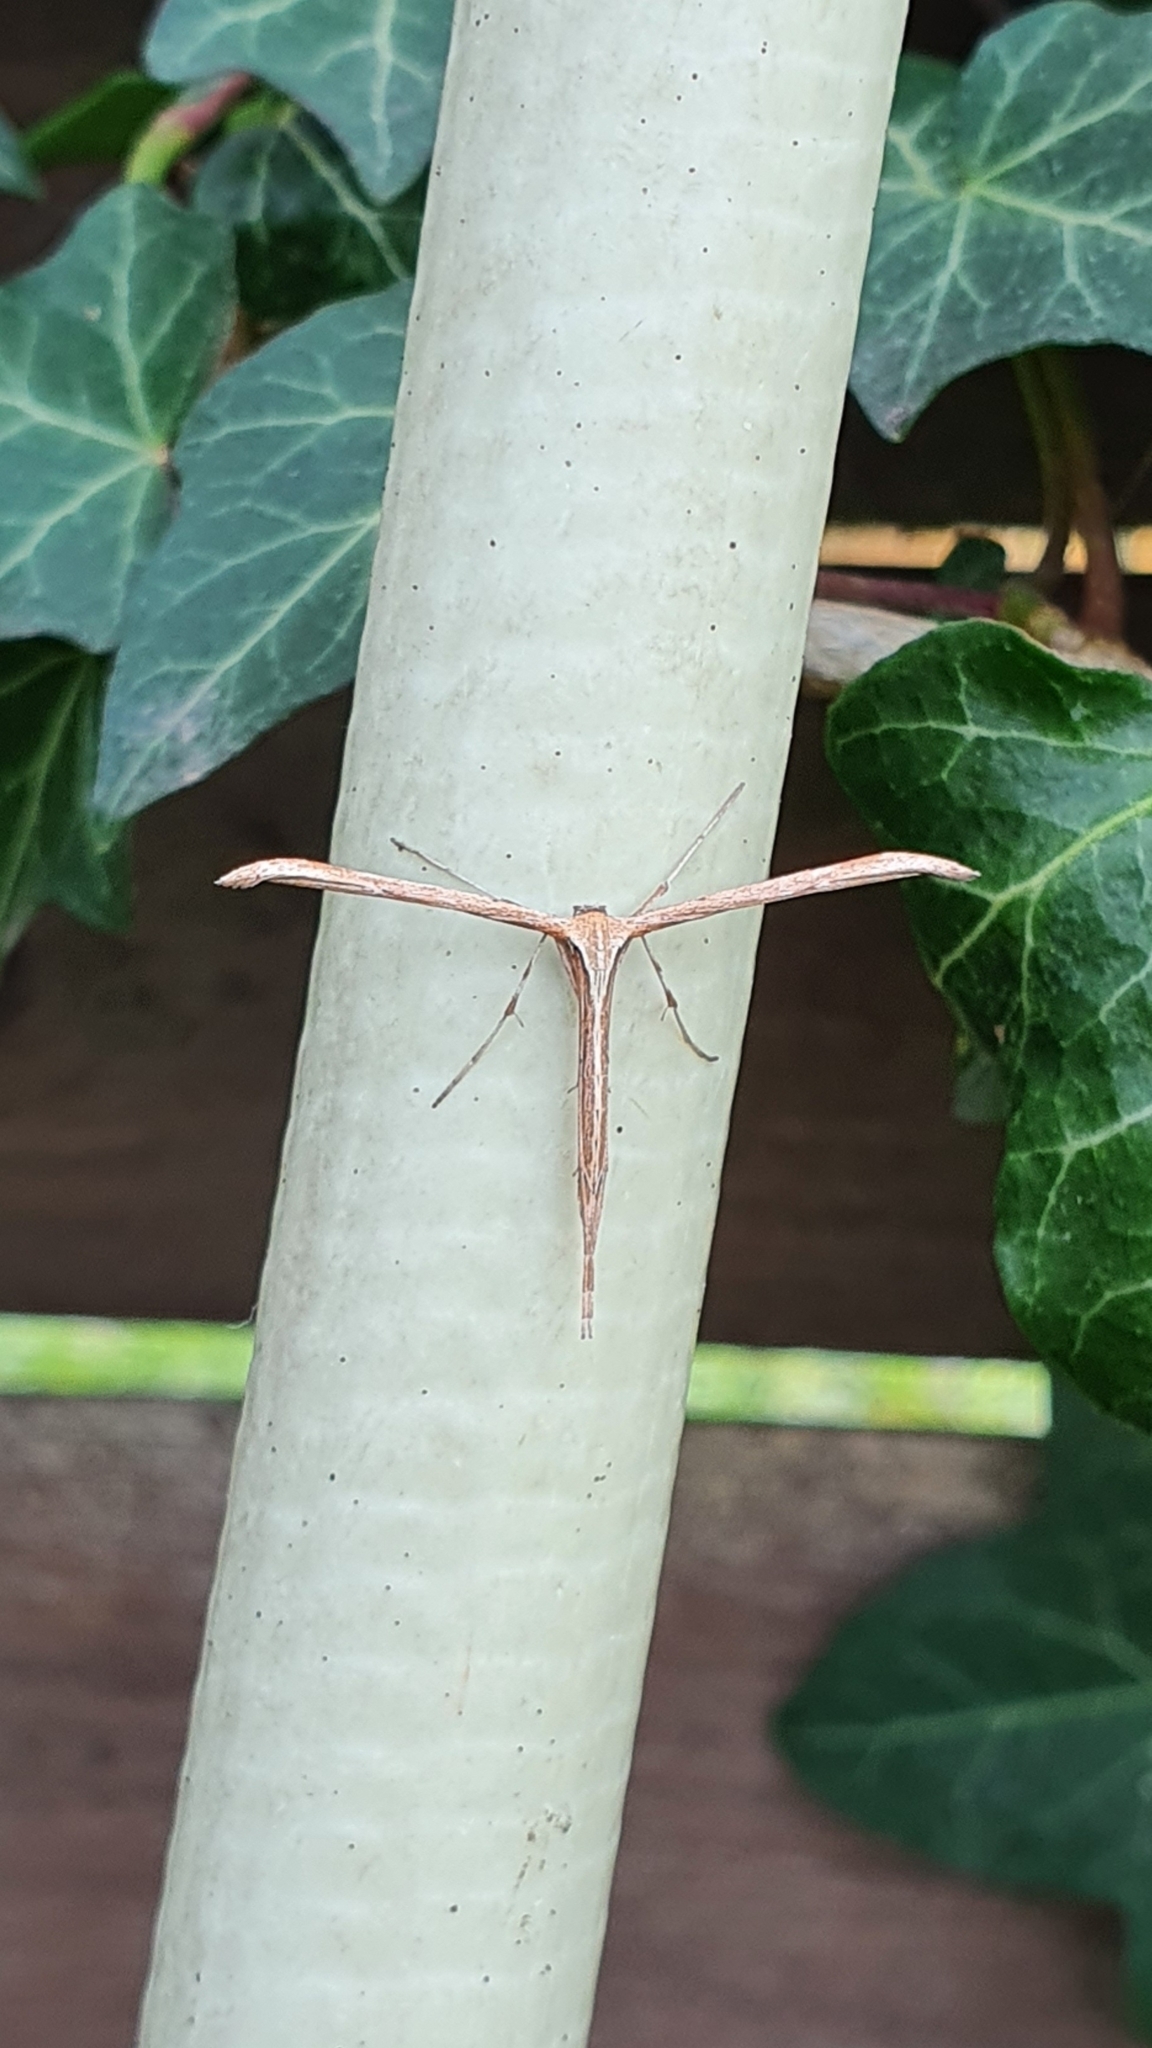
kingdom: Animalia
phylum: Arthropoda
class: Insecta
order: Lepidoptera
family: Pterophoridae
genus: Emmelina
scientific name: Emmelina monodactyla
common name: Common plume
